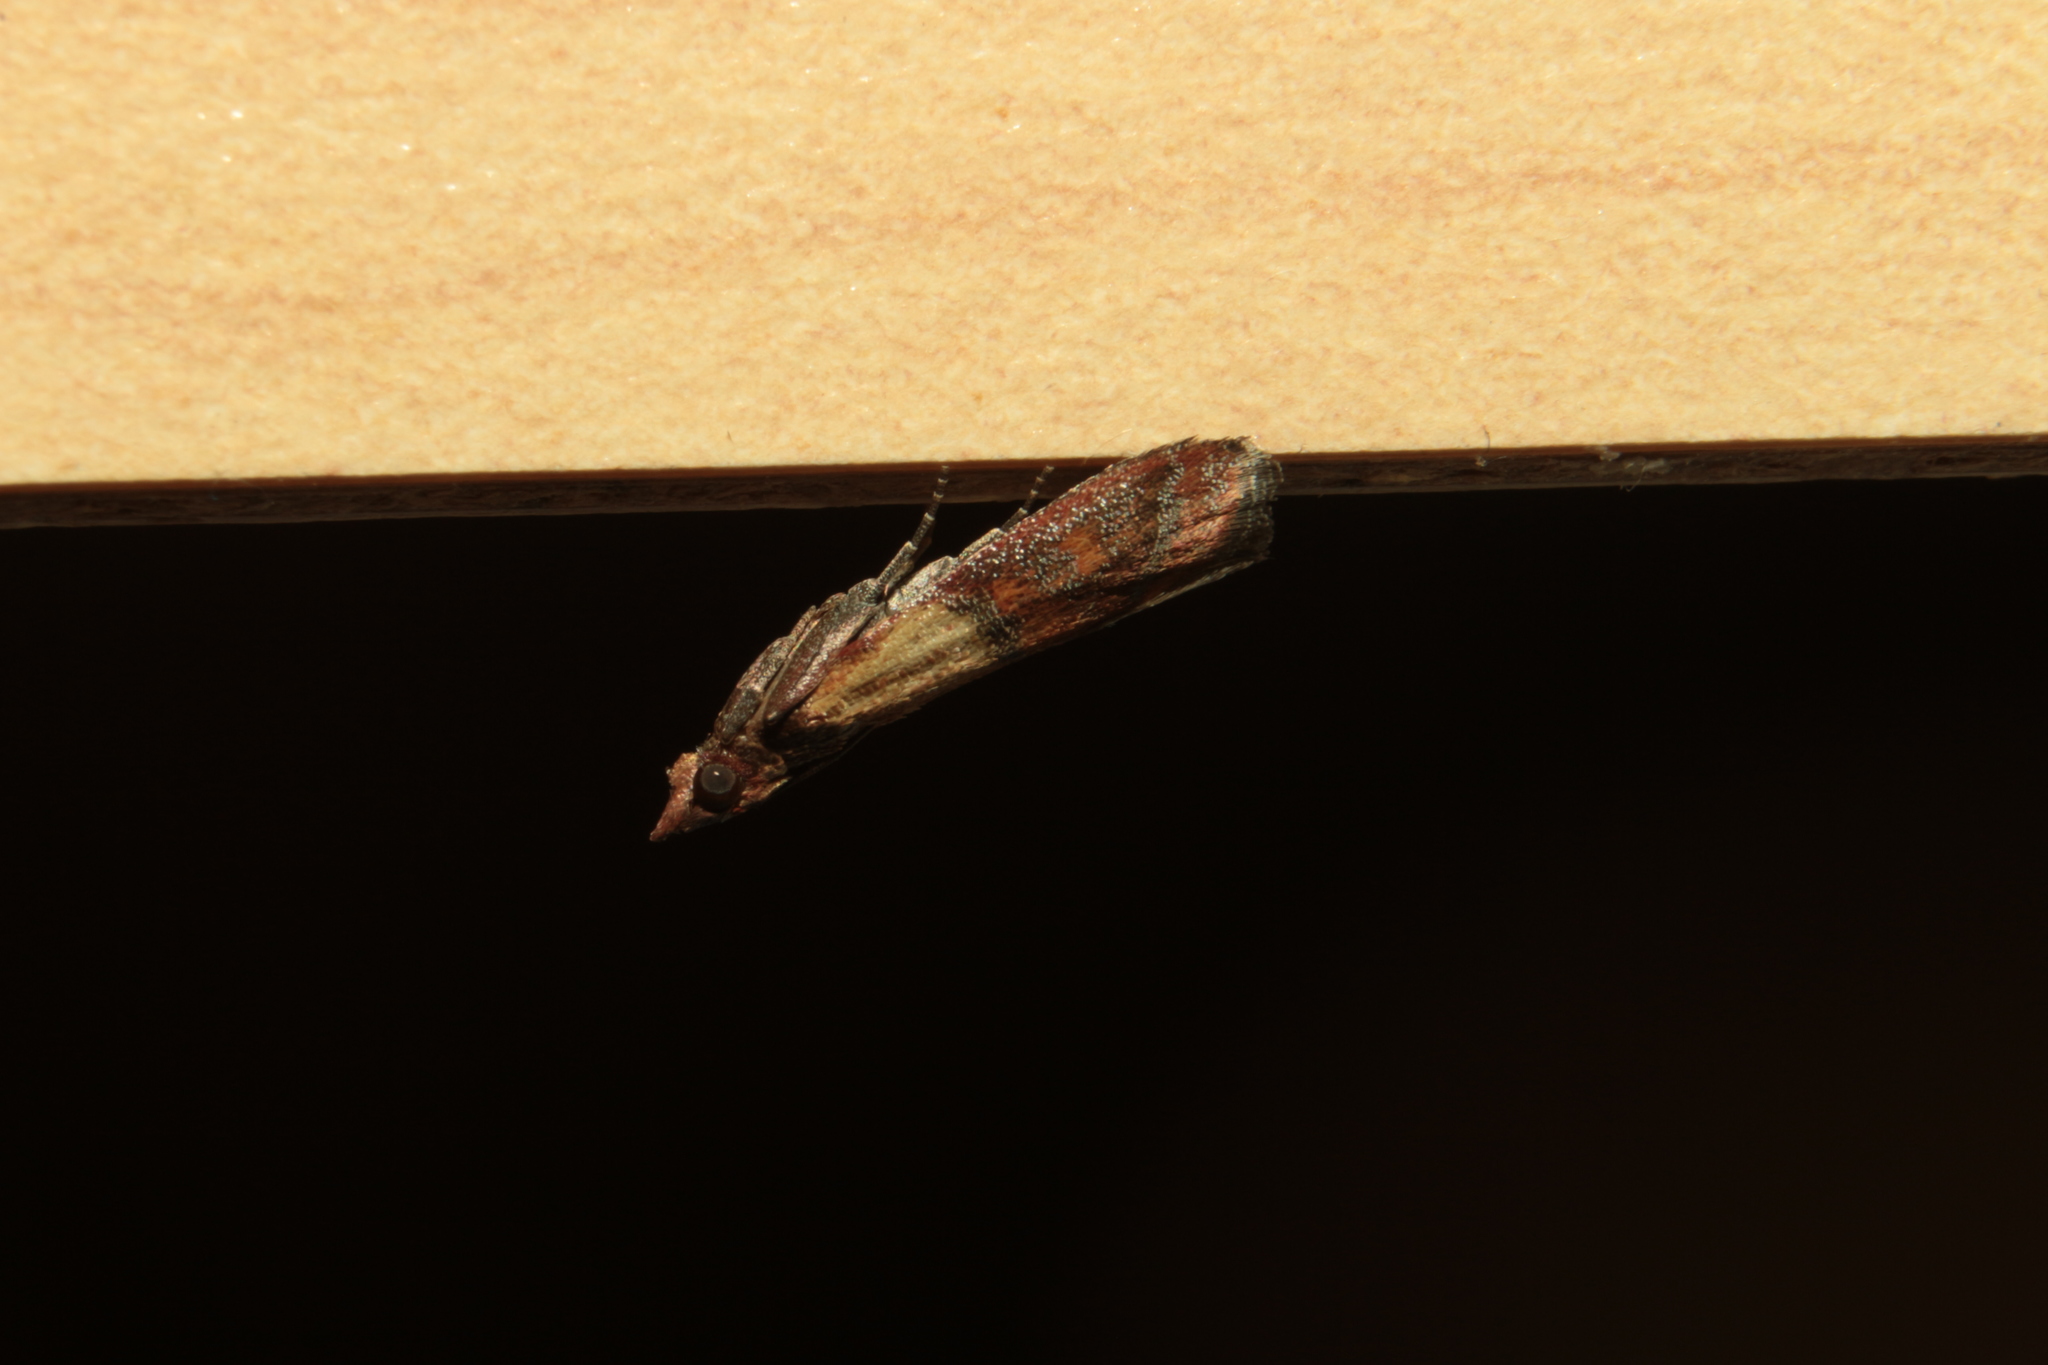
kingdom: Animalia
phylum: Arthropoda
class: Insecta
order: Lepidoptera
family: Pyralidae
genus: Plodia
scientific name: Plodia interpunctella
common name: Indian meal moth
